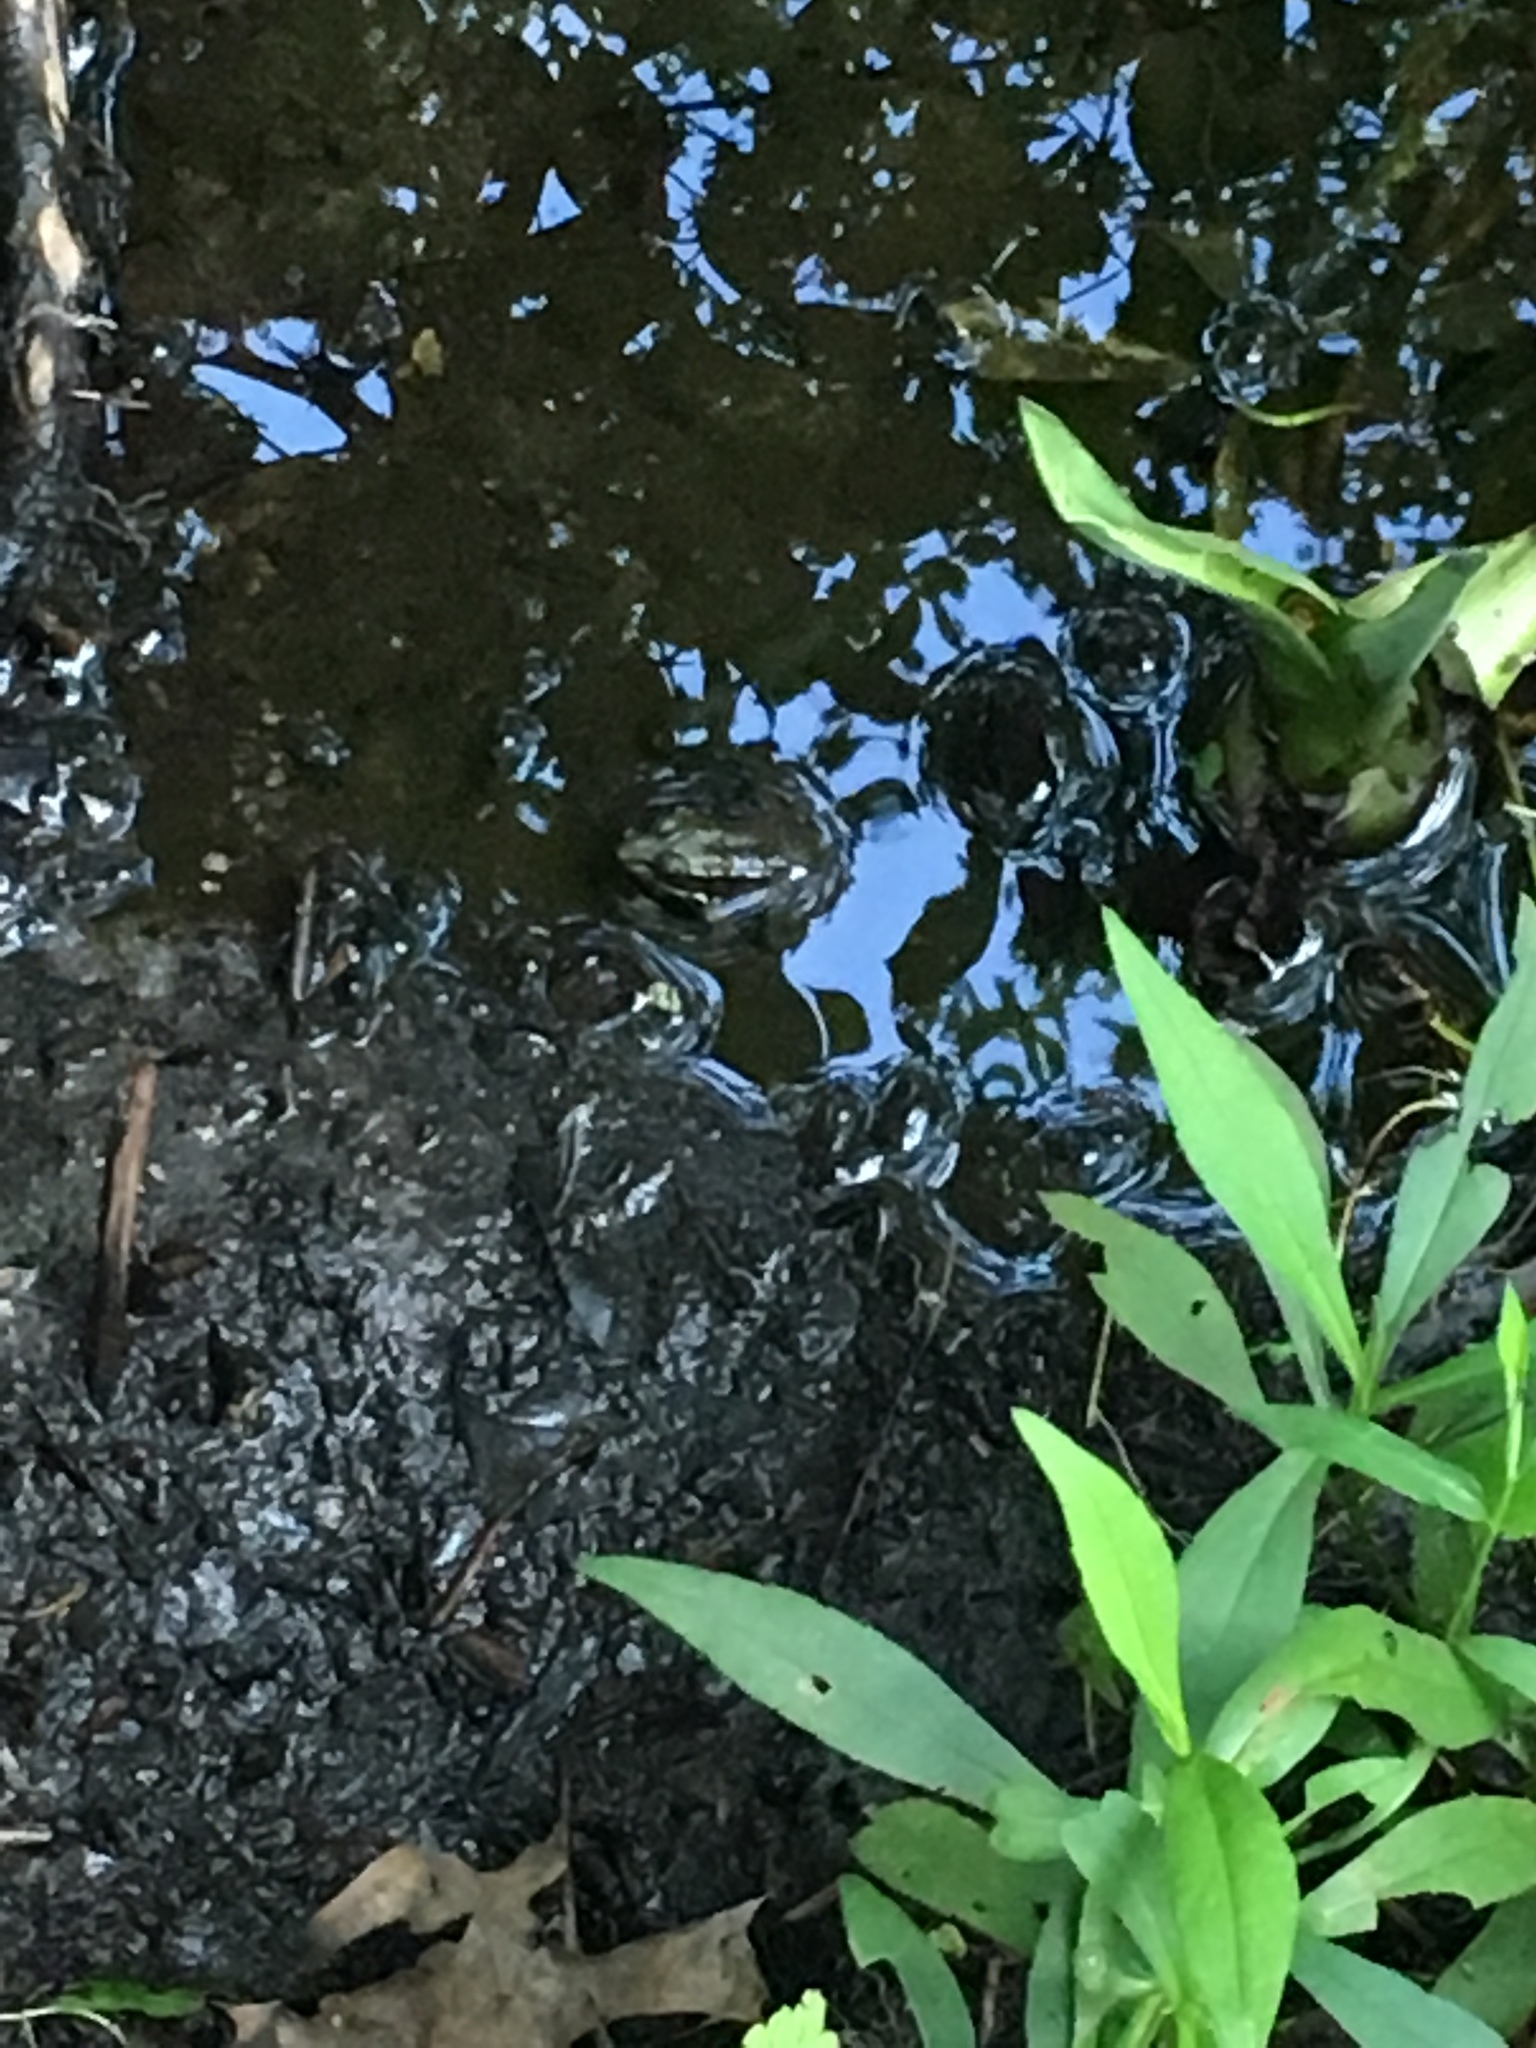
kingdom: Animalia
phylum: Chordata
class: Amphibia
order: Anura
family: Ranidae
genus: Lithobates
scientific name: Lithobates clamitans
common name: Green frog
